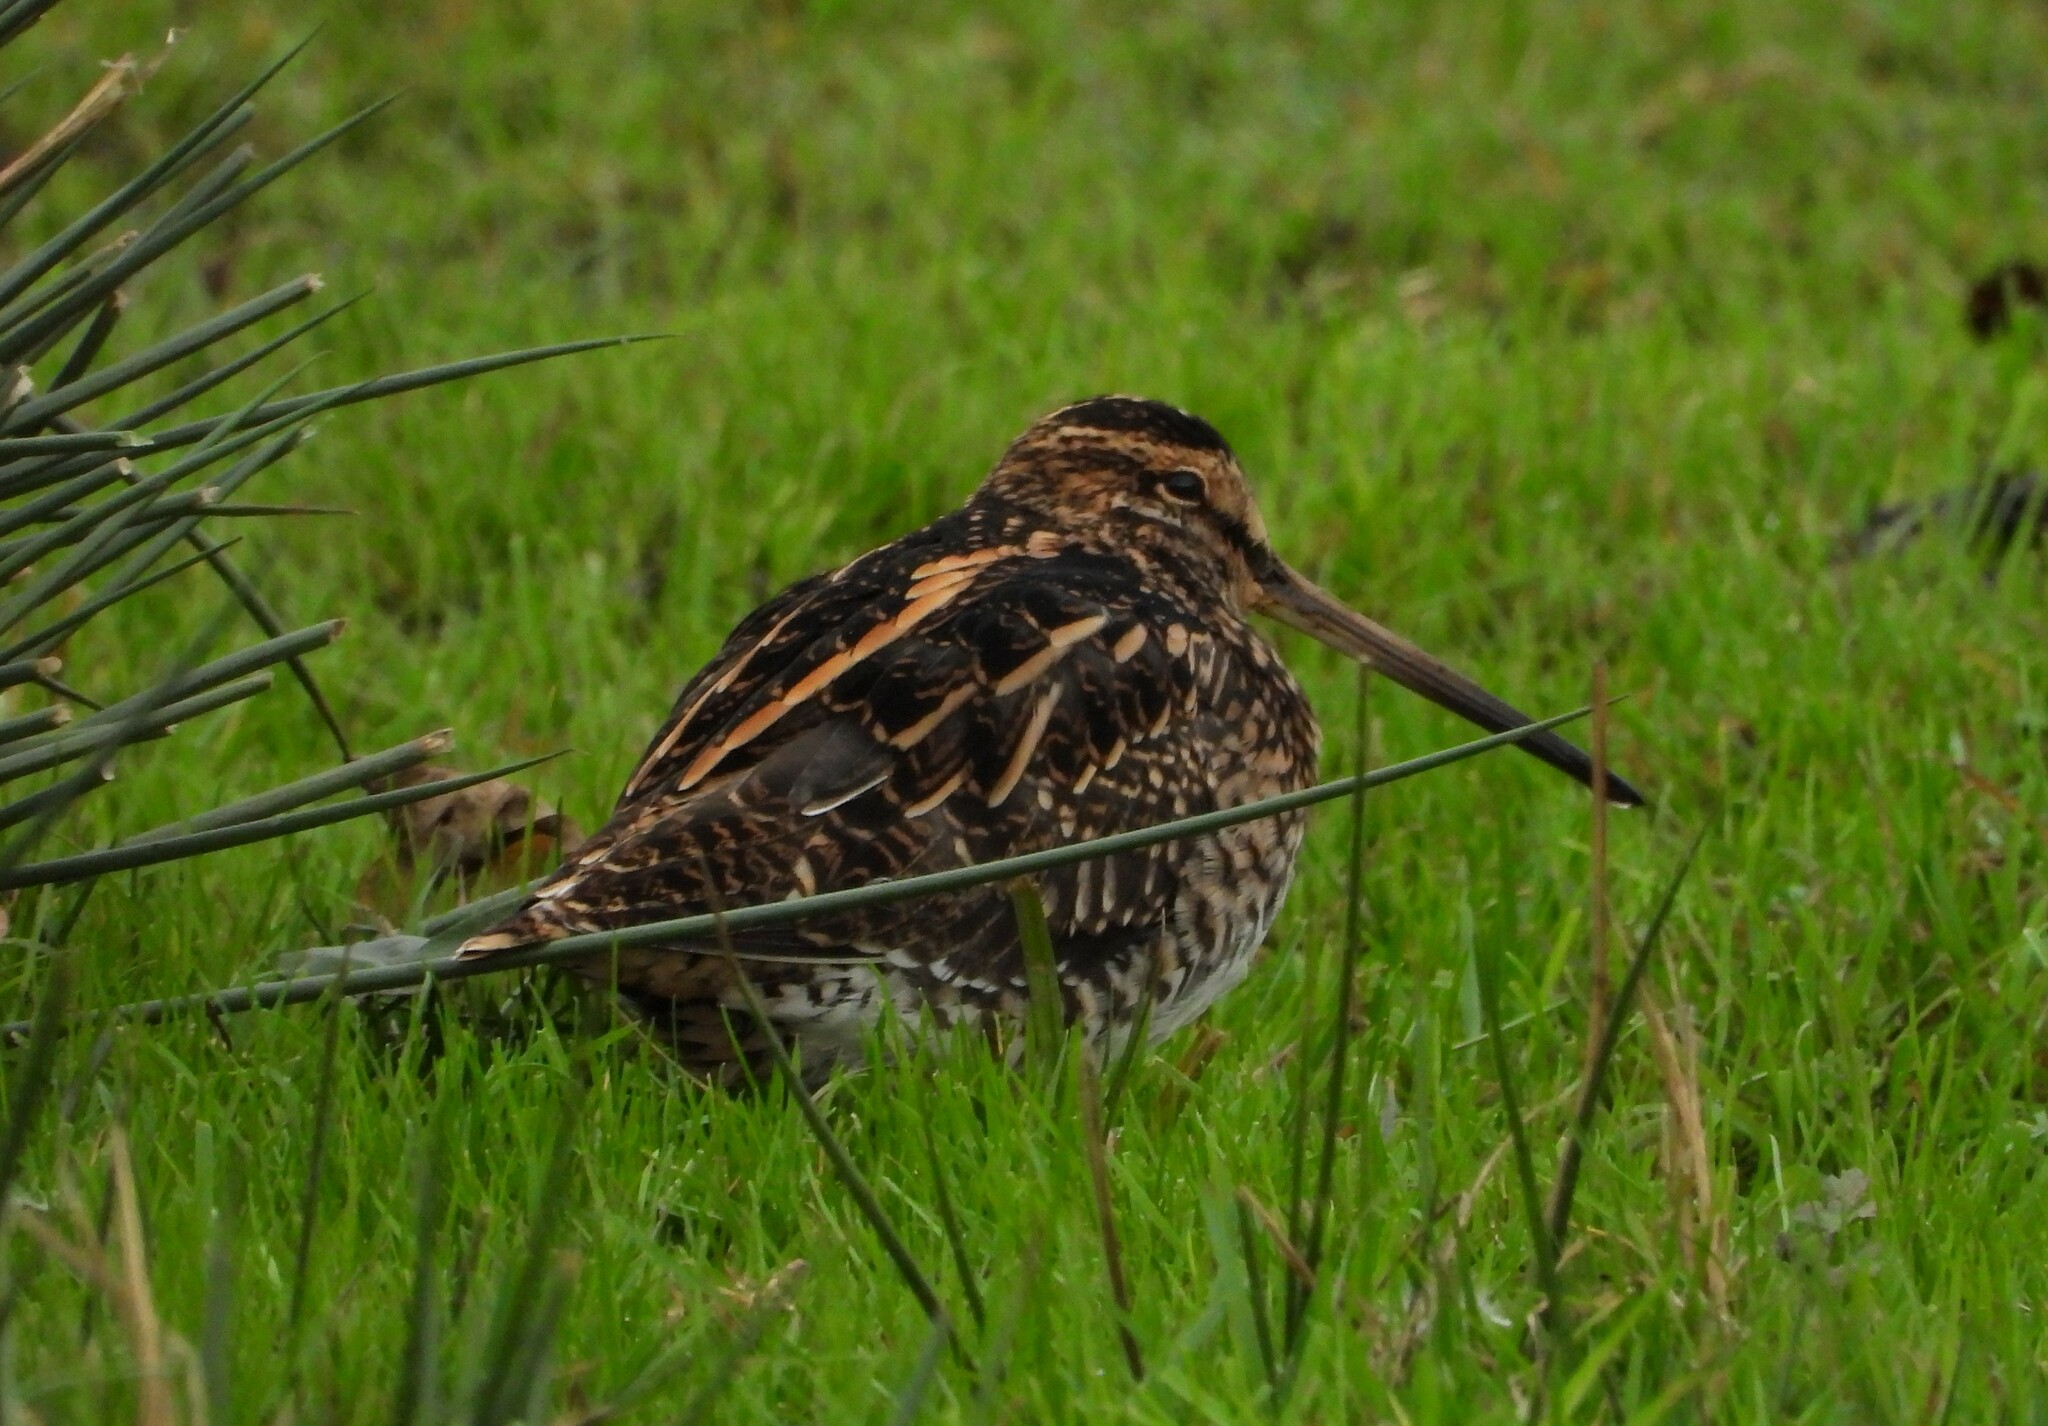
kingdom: Animalia
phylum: Chordata
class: Aves
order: Charadriiformes
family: Scolopacidae
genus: Gallinago
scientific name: Gallinago gallinago
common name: Common snipe
